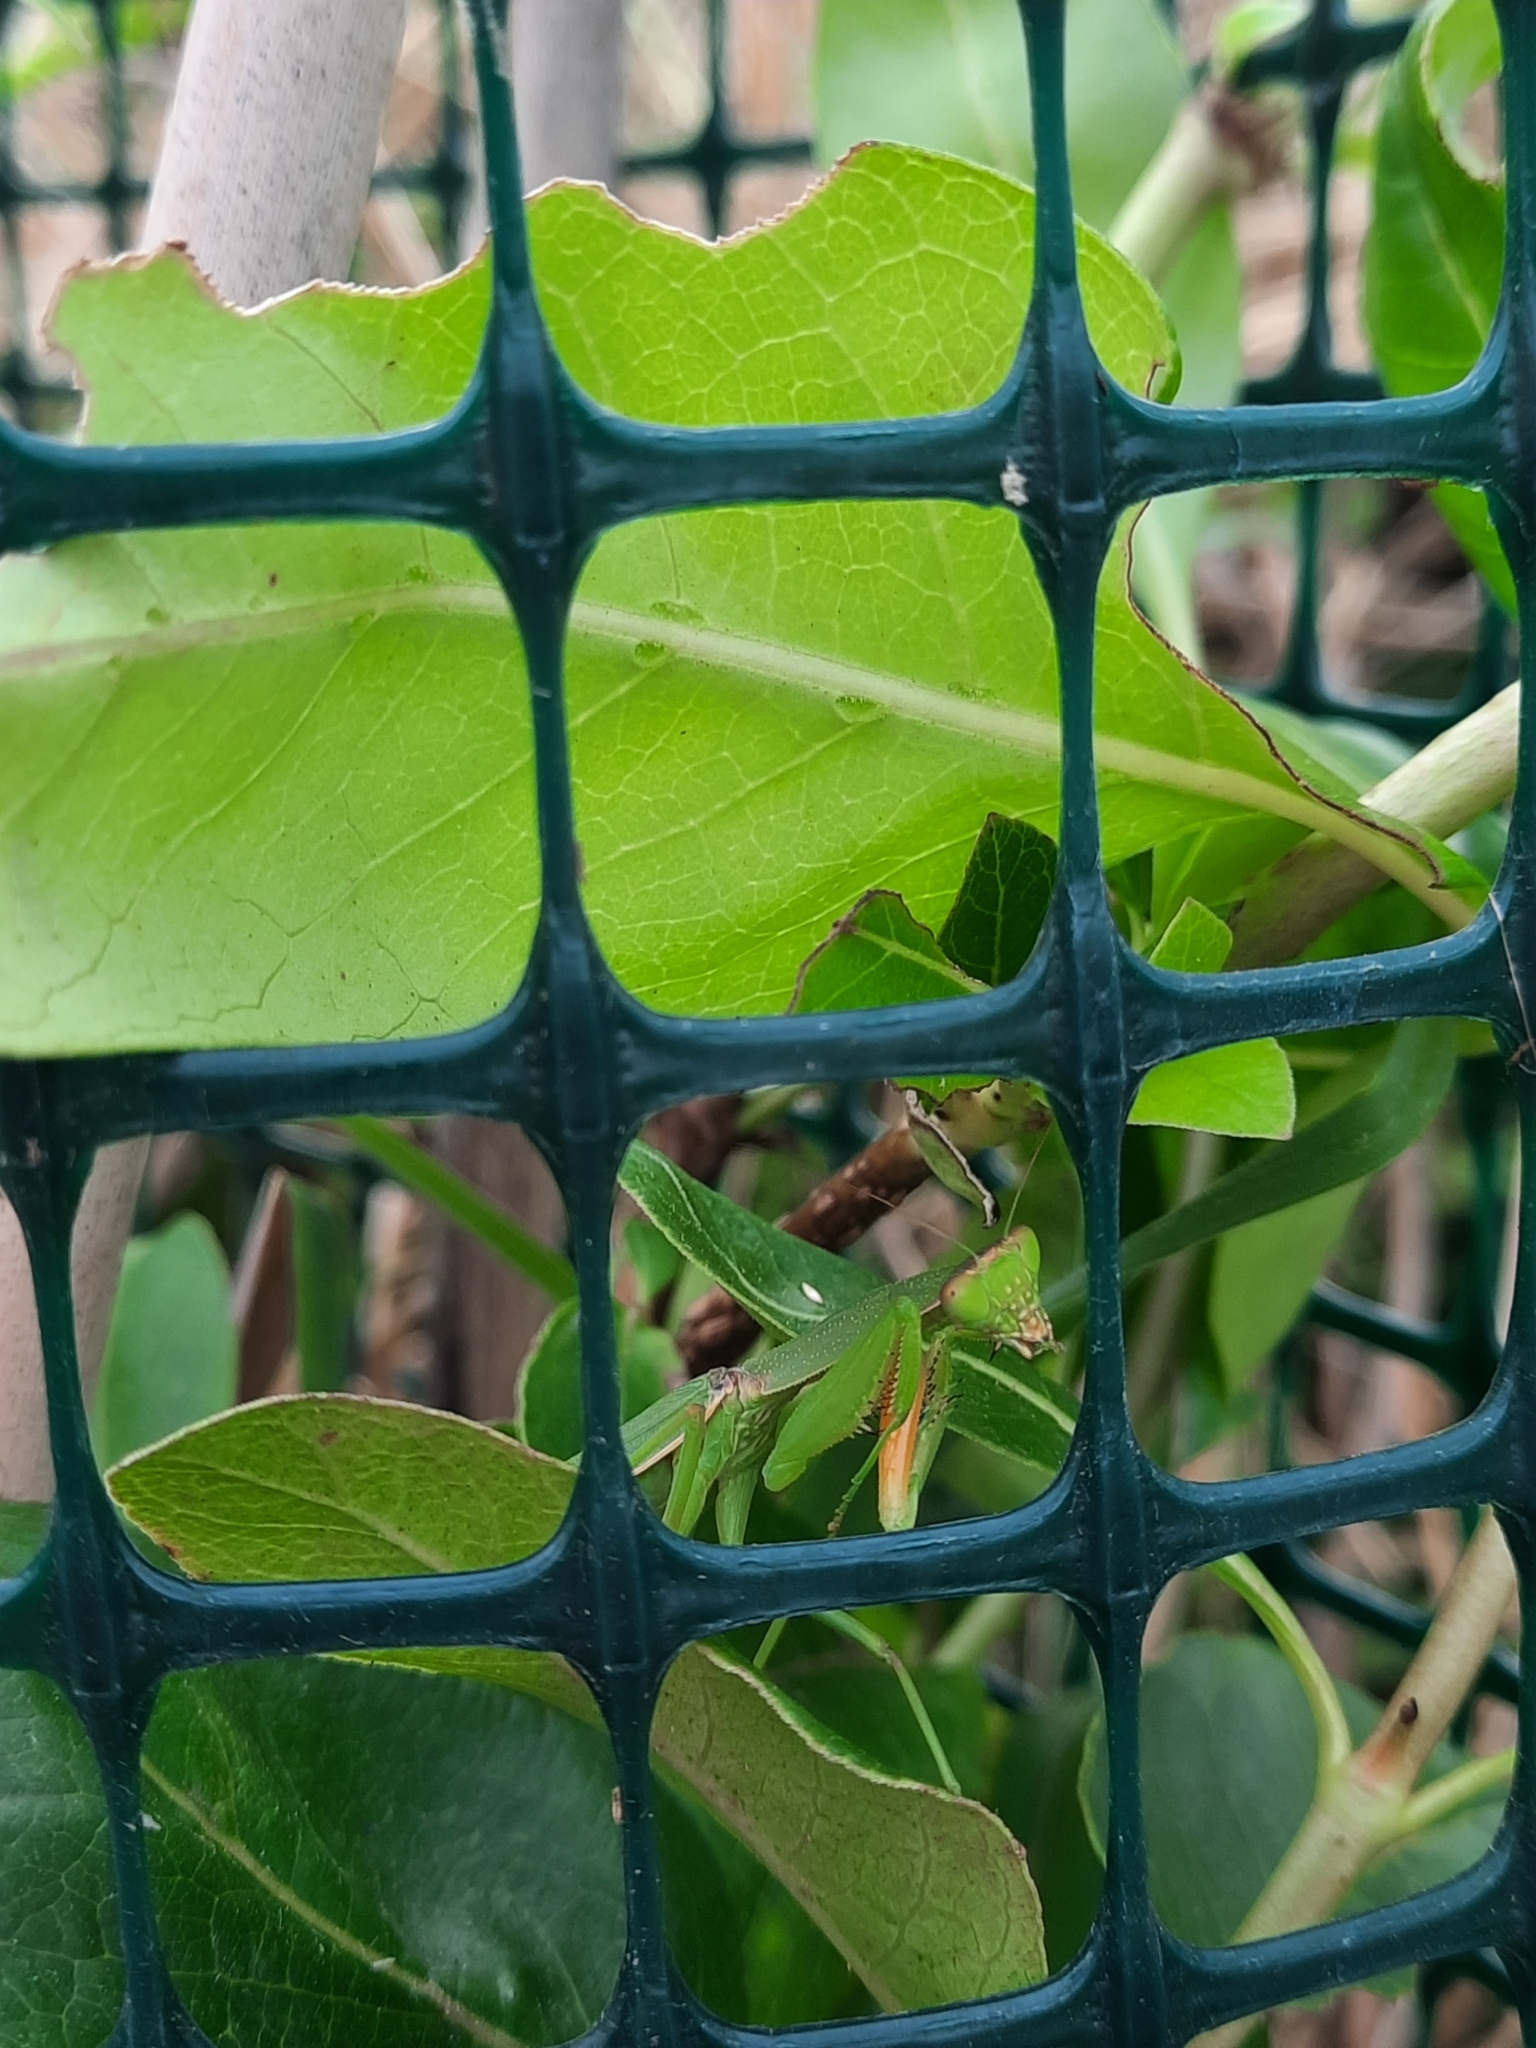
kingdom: Animalia
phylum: Arthropoda
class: Insecta
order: Mantodea
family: Mantidae
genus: Orthodera
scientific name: Orthodera novaezealandiae
